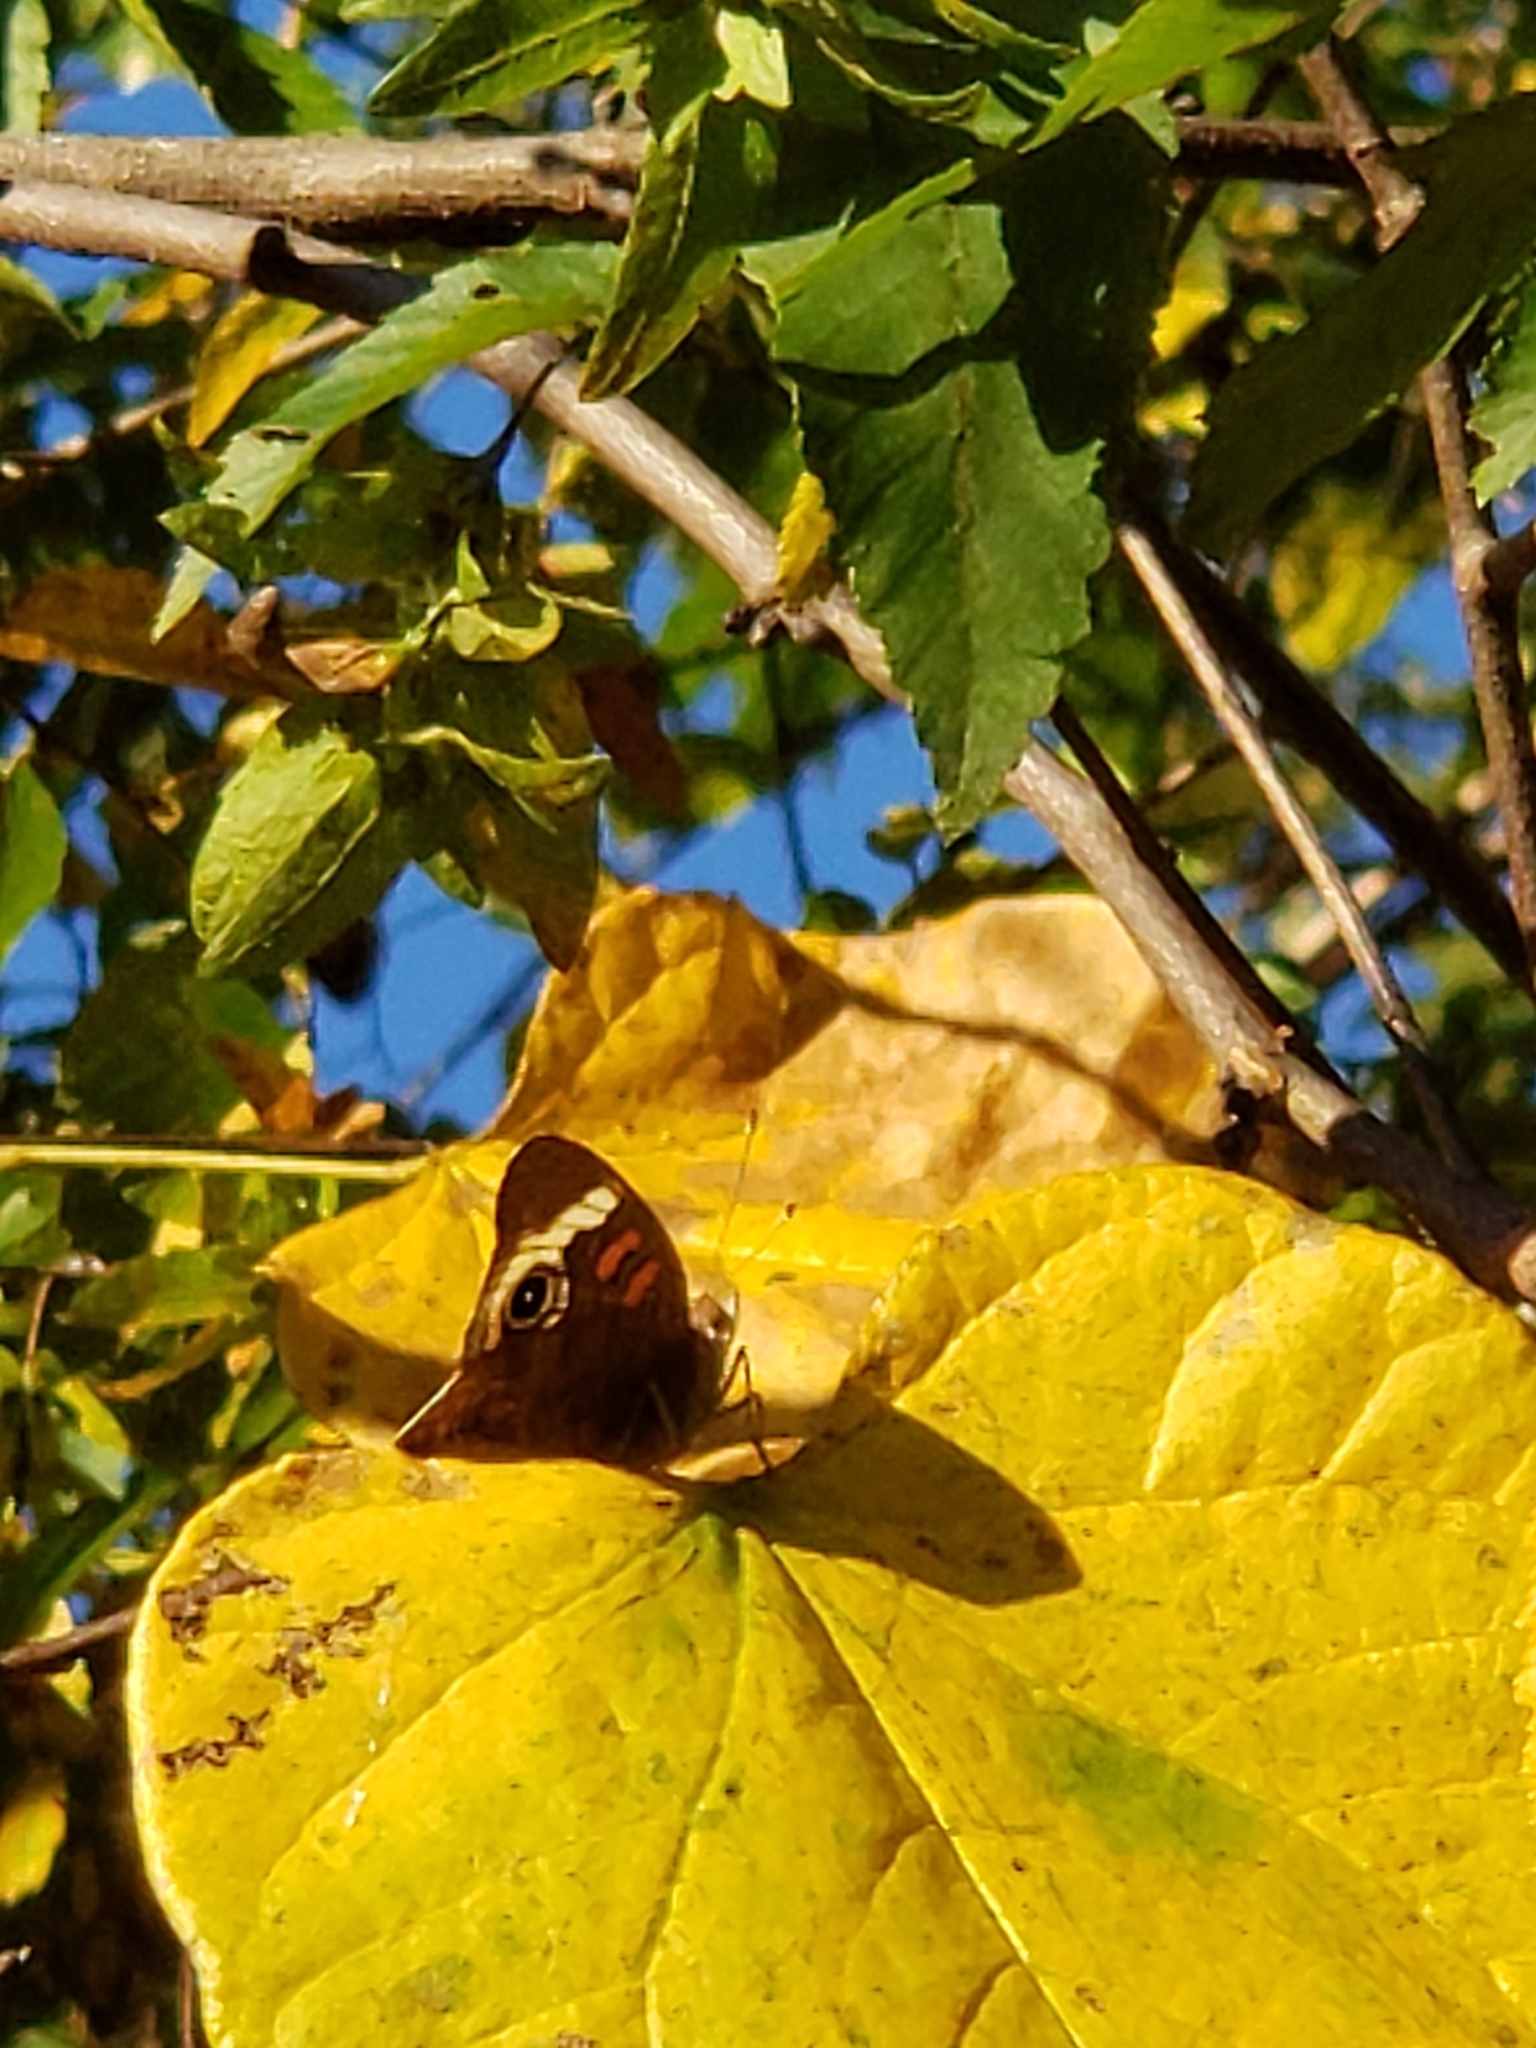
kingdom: Animalia
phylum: Arthropoda
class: Insecta
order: Lepidoptera
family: Nymphalidae
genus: Junonia
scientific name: Junonia coenia
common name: Common buckeye
